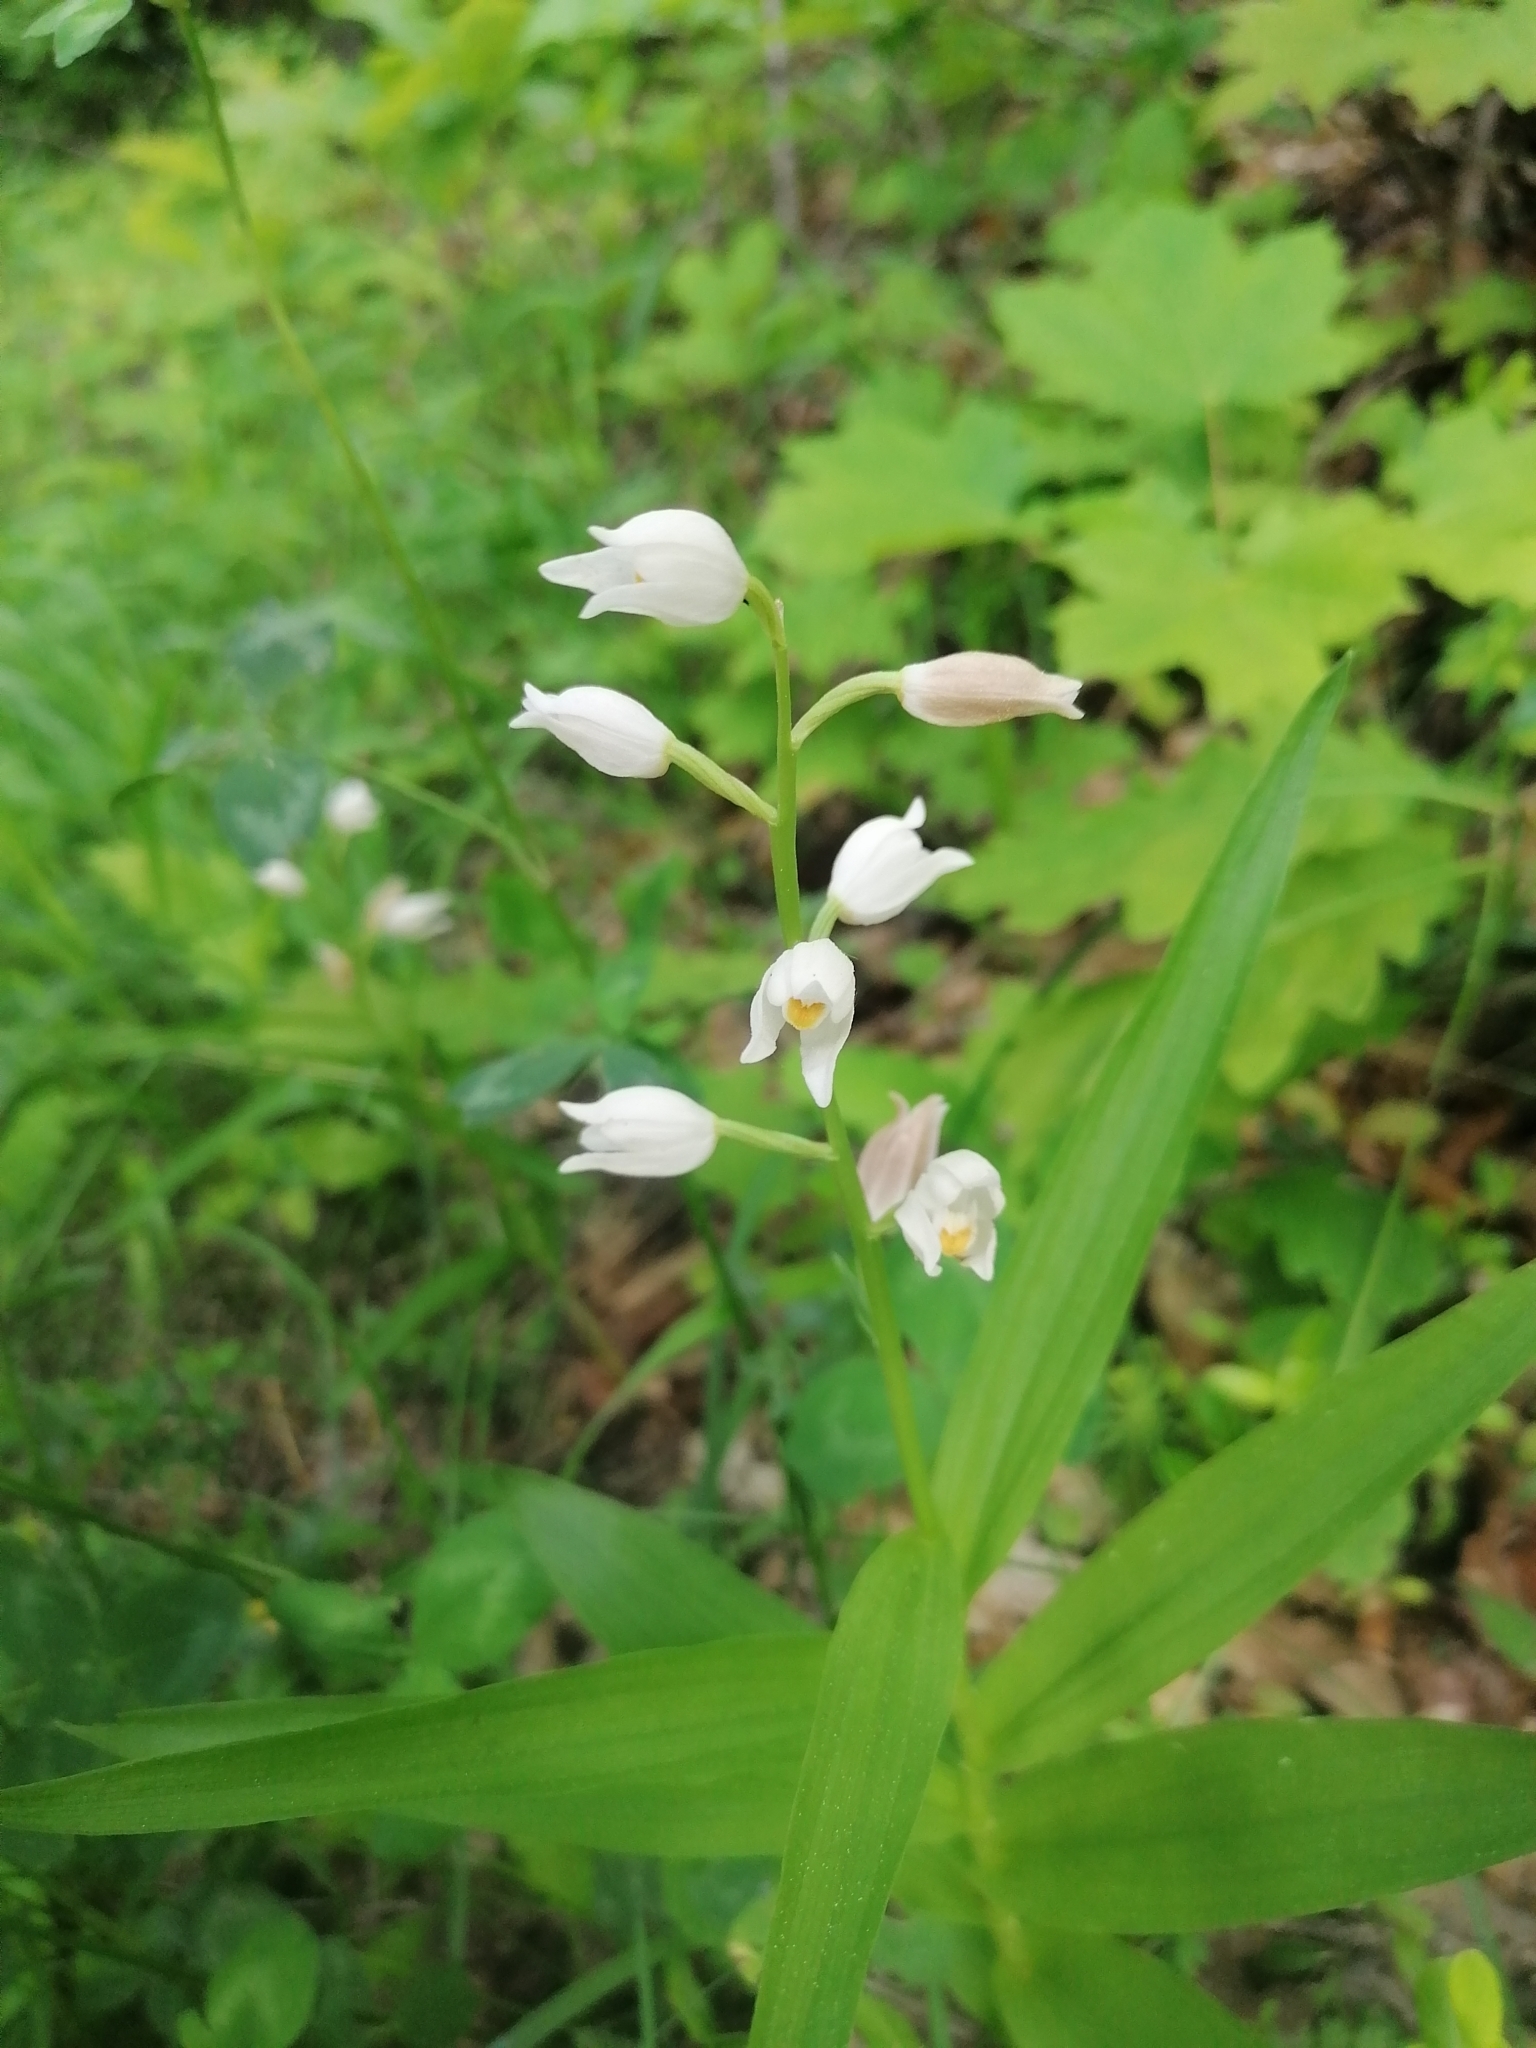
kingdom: Plantae
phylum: Tracheophyta
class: Liliopsida
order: Asparagales
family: Orchidaceae
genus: Cephalanthera
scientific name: Cephalanthera longifolia
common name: Narrow-leaved helleborine
